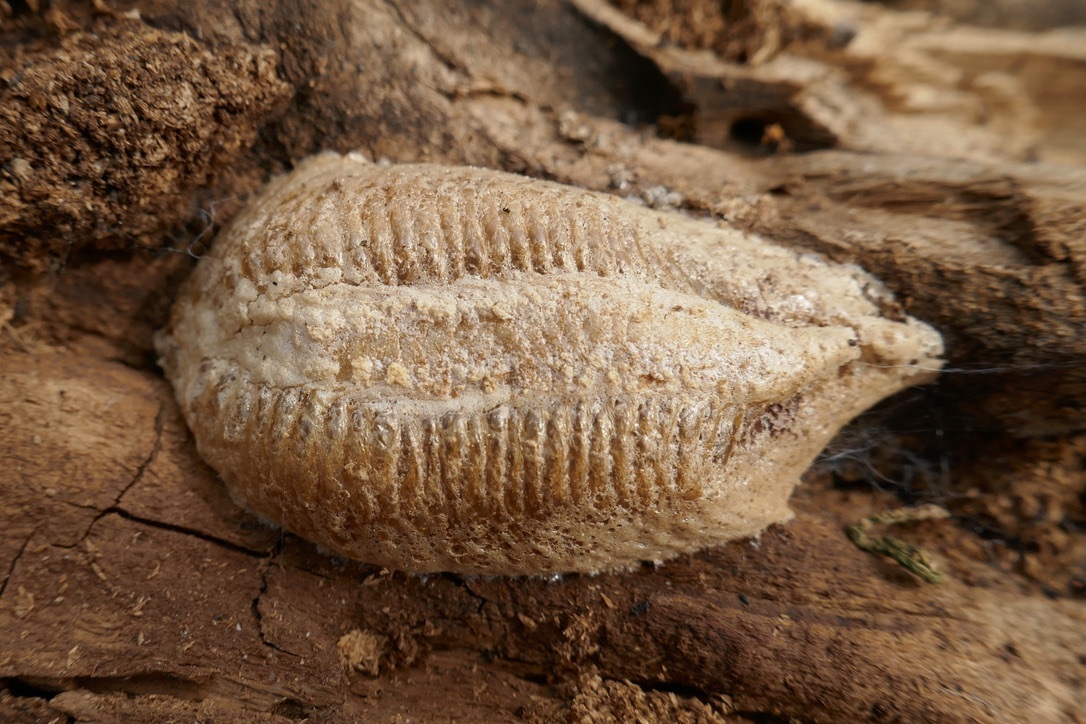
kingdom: Animalia
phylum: Arthropoda
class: Insecta
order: Mantodea
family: Mantidae
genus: Mantis
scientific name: Mantis religiosa
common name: Praying mantis
